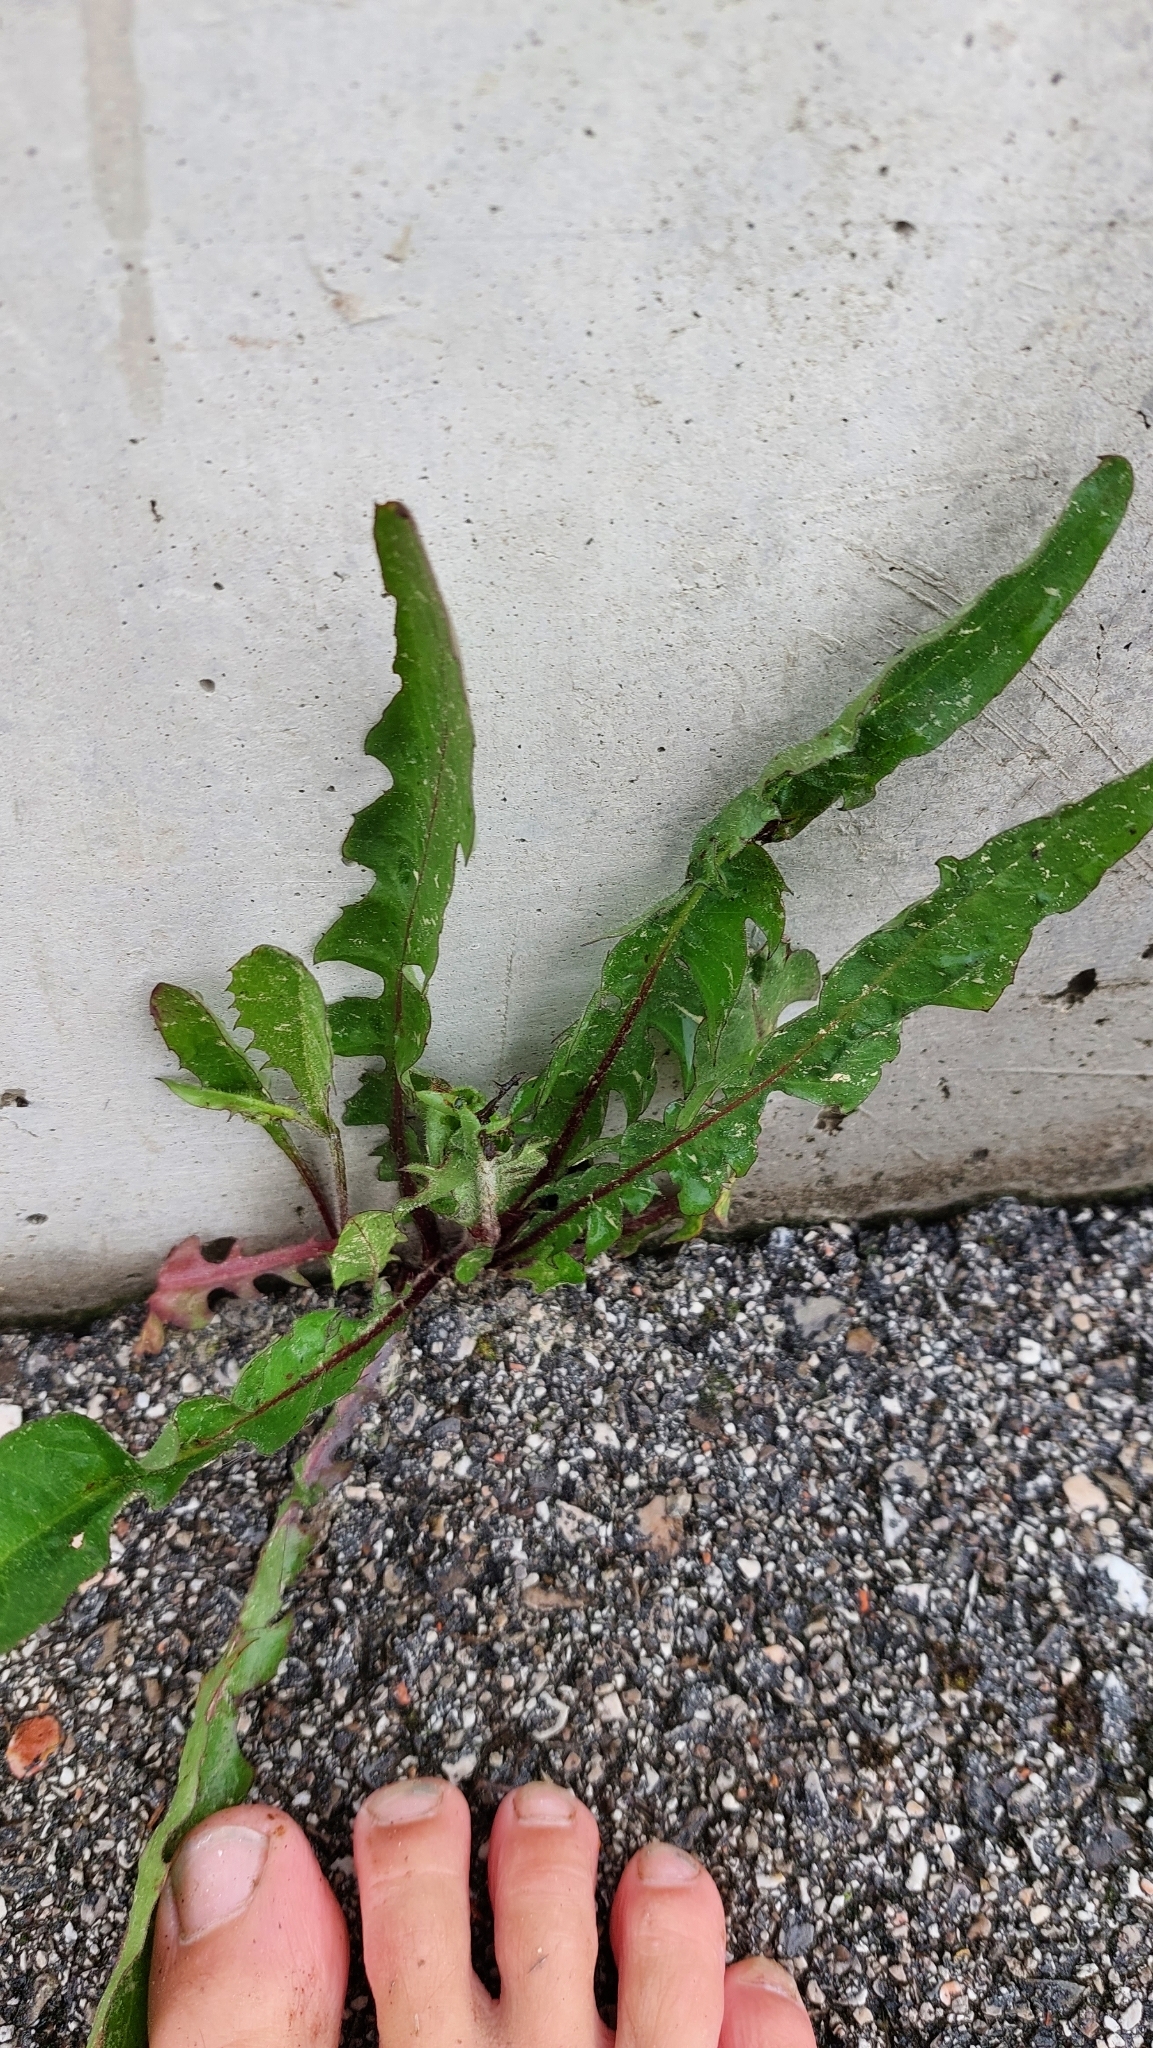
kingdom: Plantae
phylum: Tracheophyta
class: Magnoliopsida
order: Asterales
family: Asteraceae
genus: Taraxacum
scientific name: Taraxacum
